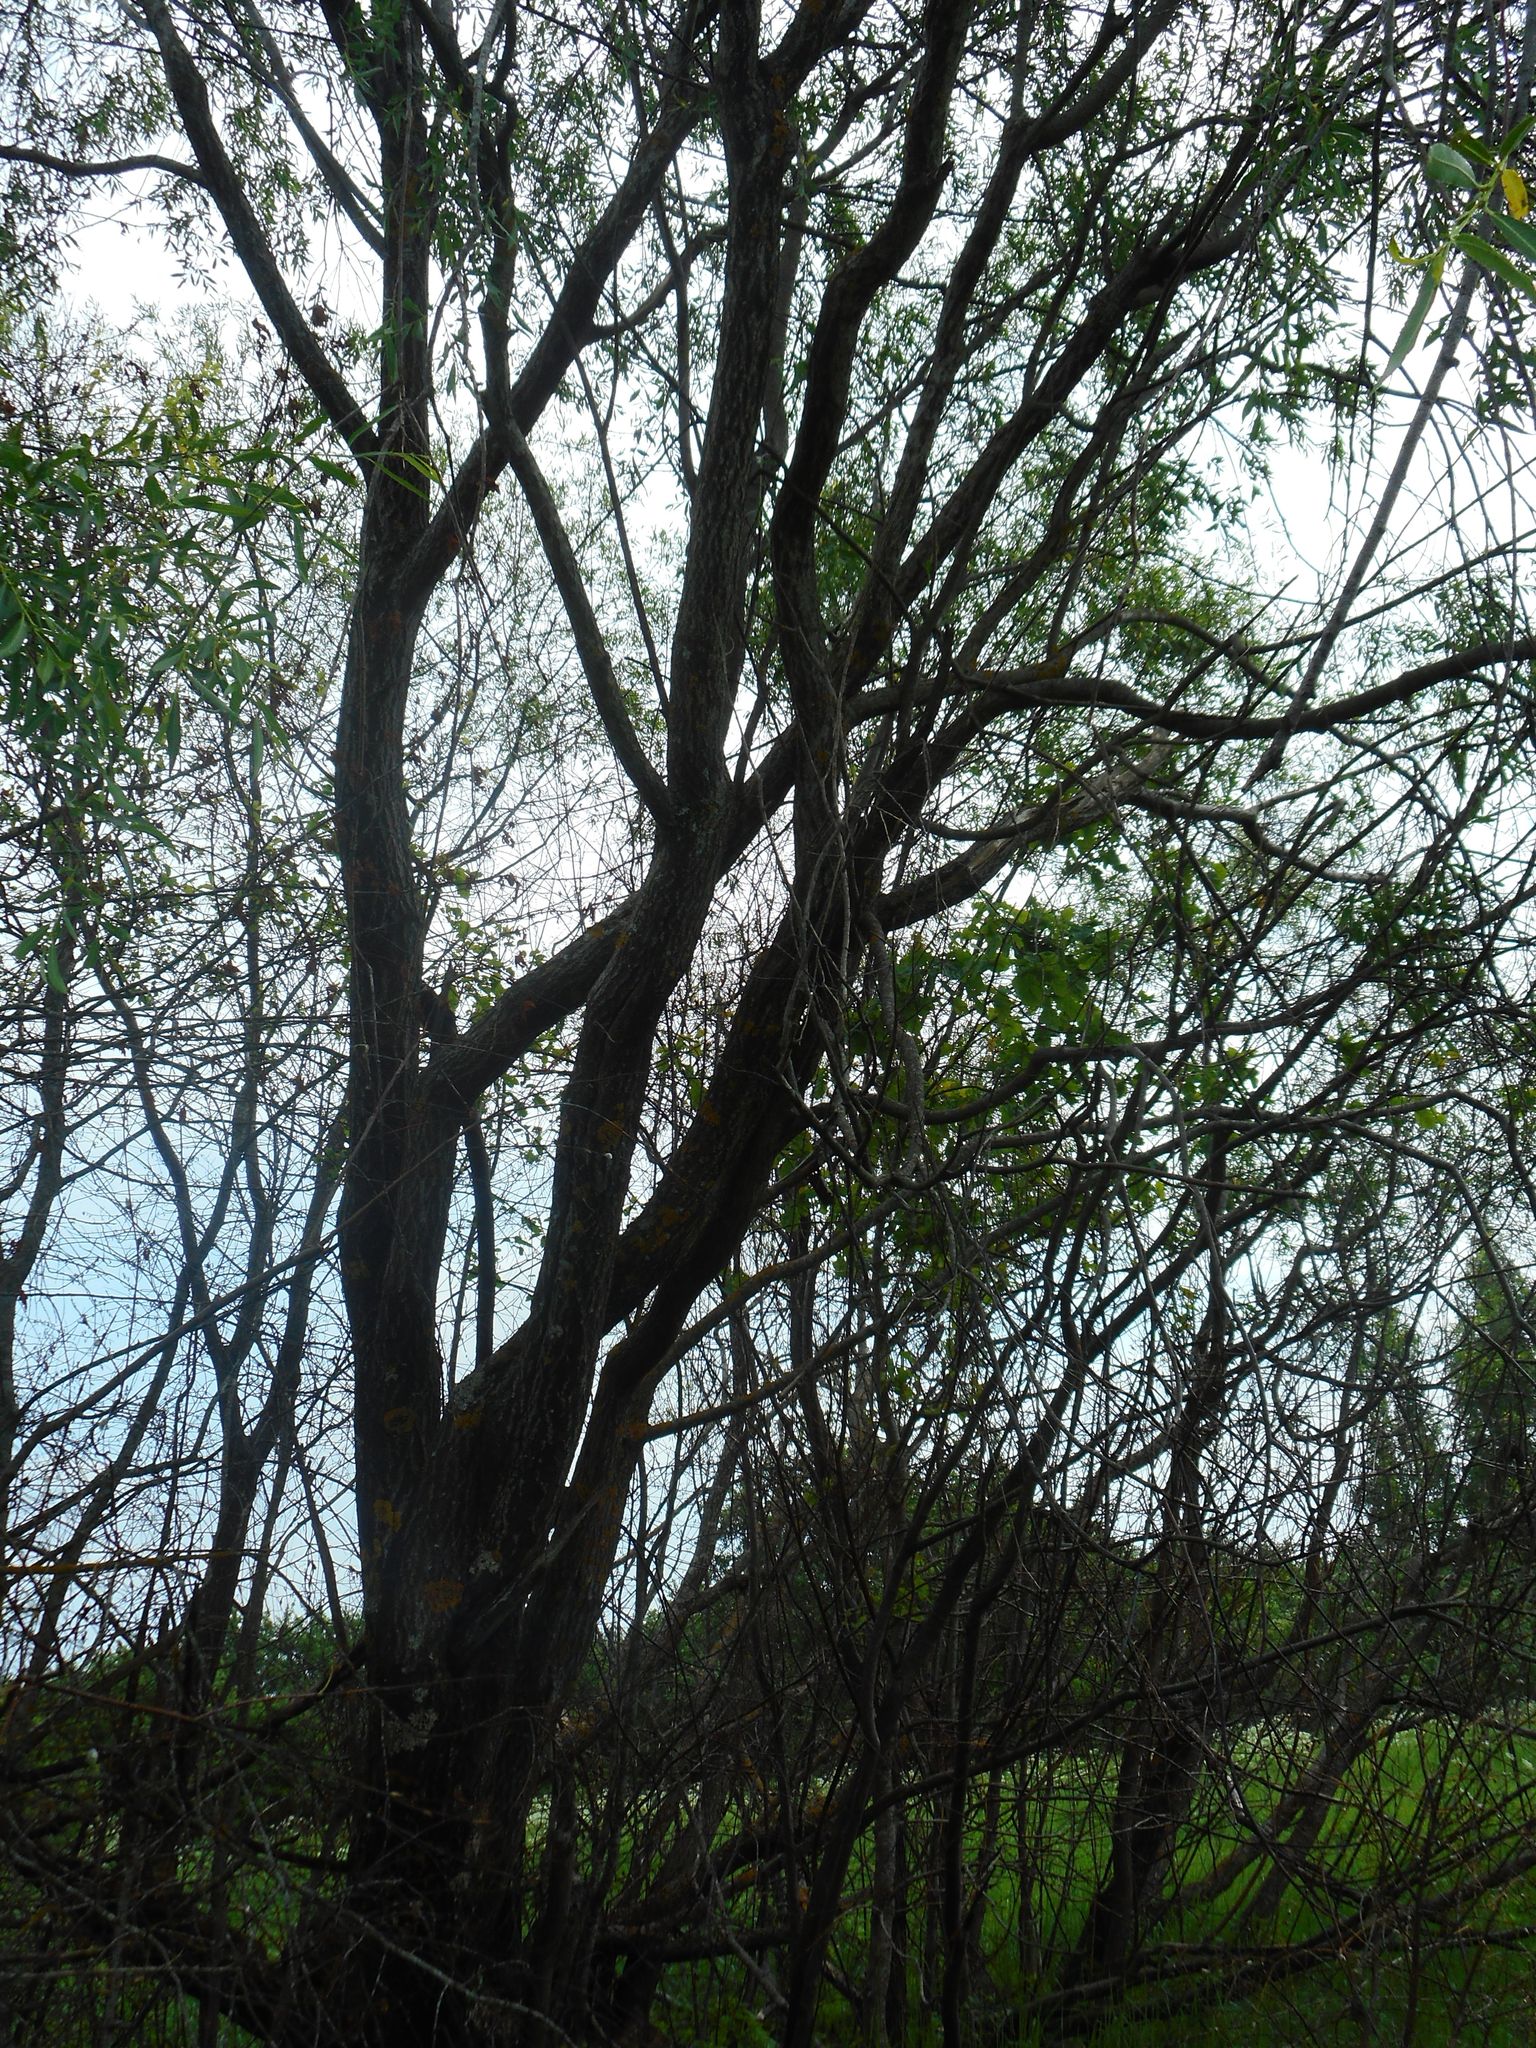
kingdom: Plantae
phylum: Tracheophyta
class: Magnoliopsida
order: Malpighiales
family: Salicaceae
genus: Salix
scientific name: Salix acutifolia
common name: Siberian violet-willow
